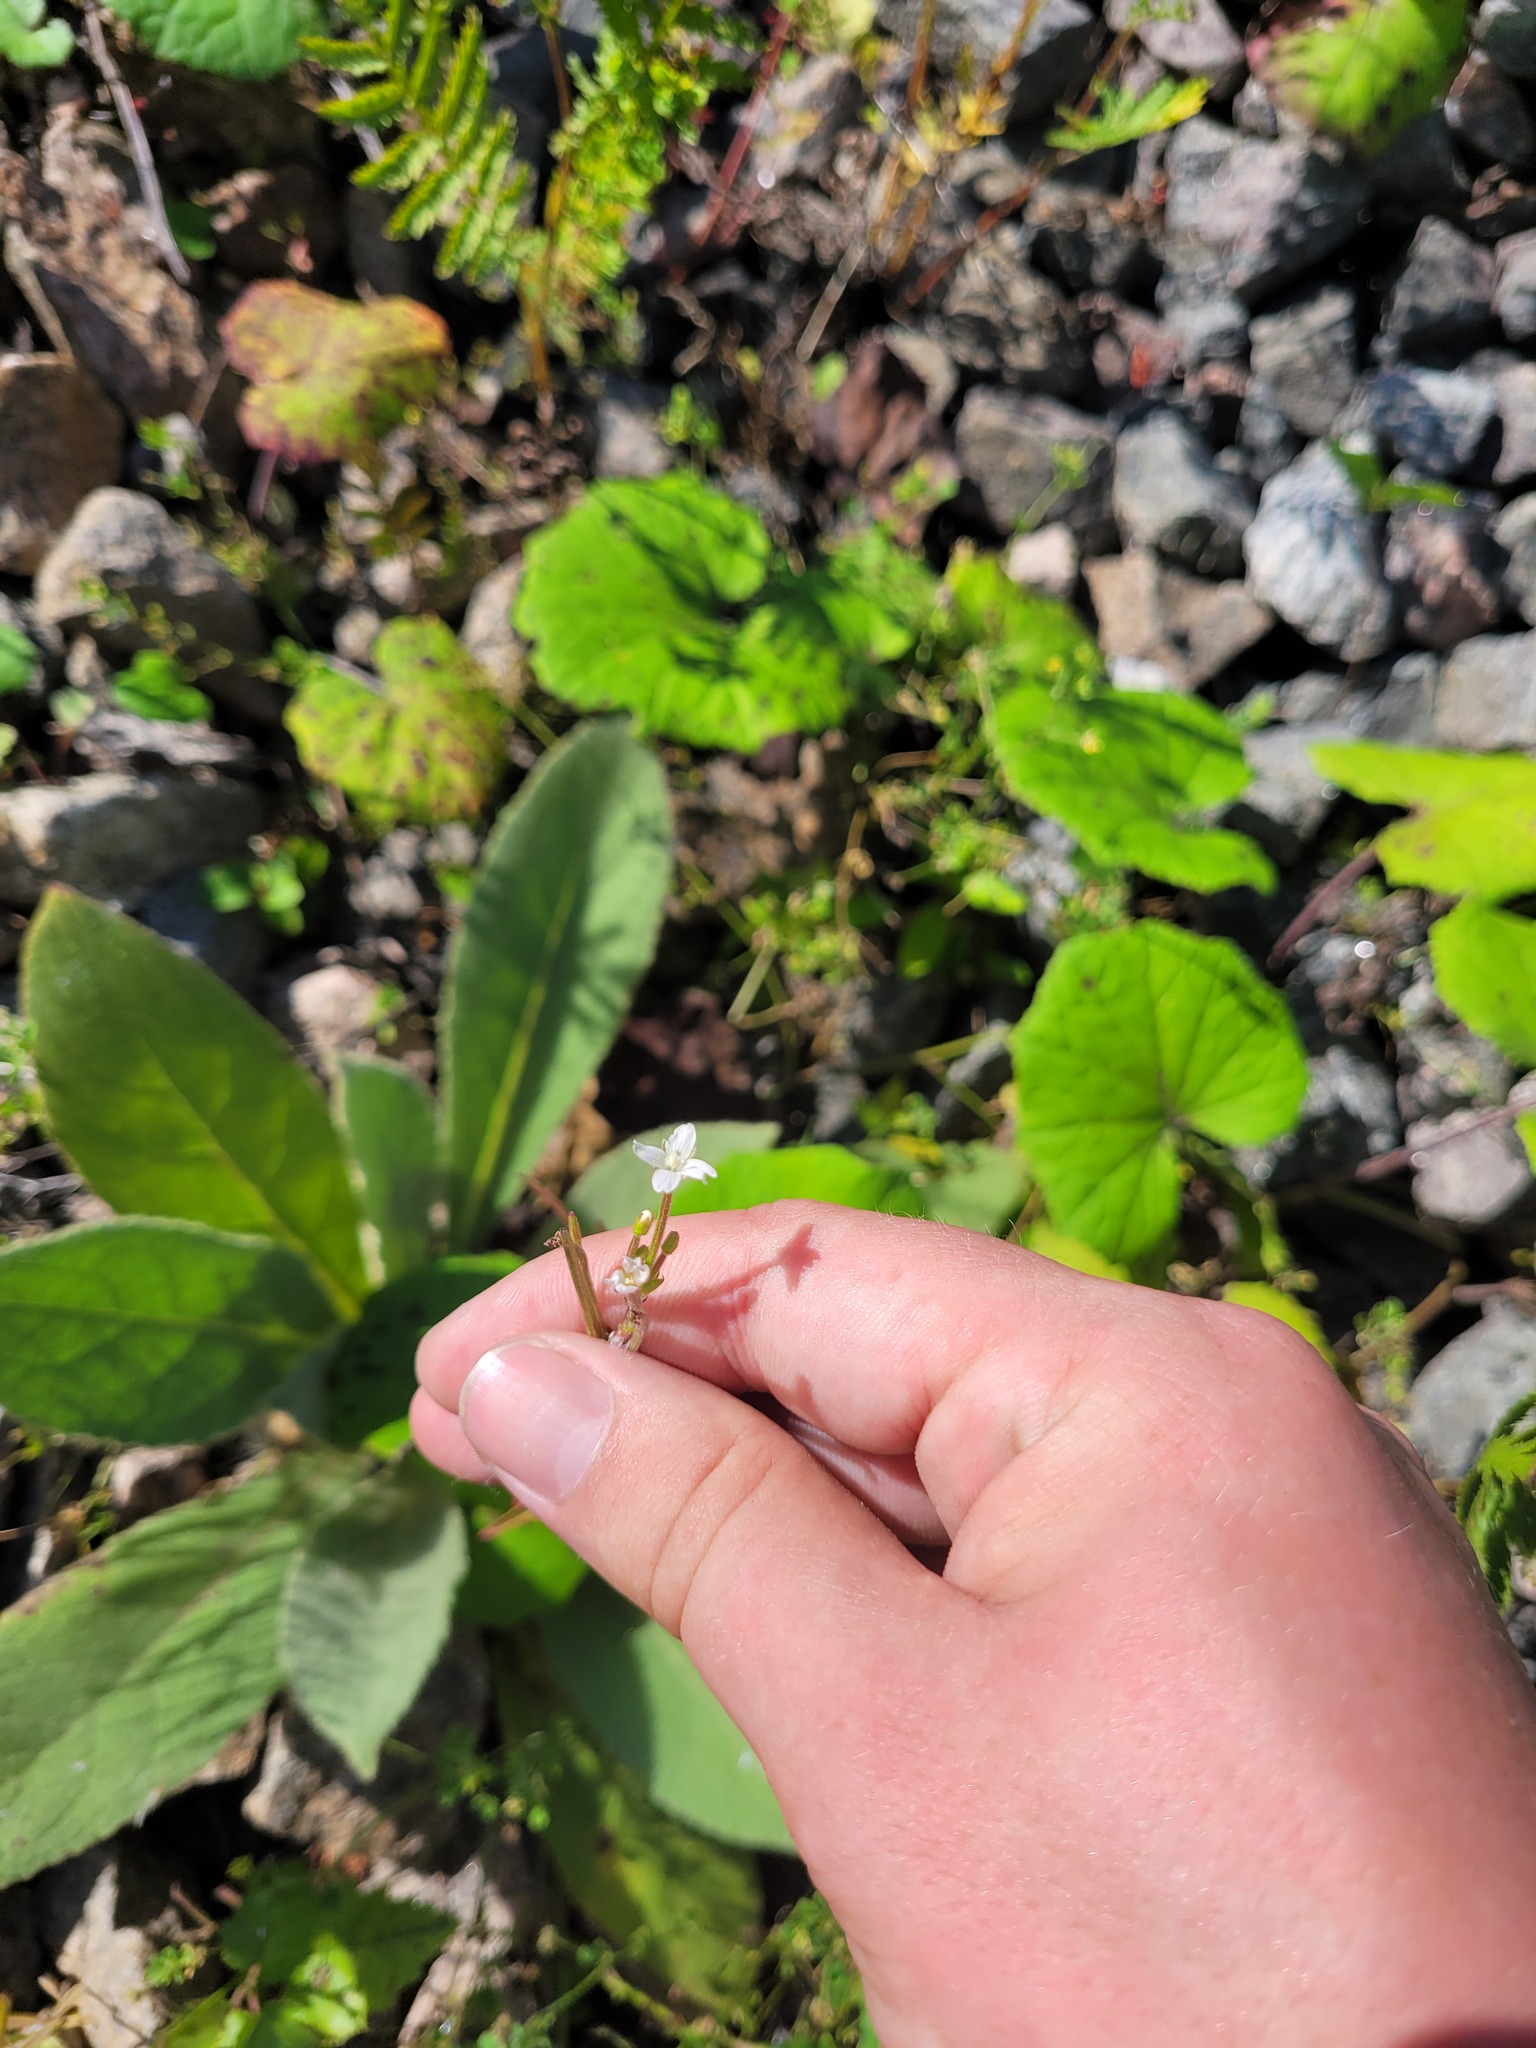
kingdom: Plantae
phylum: Tracheophyta
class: Magnoliopsida
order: Myrtales
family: Onagraceae
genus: Epilobium
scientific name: Epilobium pseudorubescens
